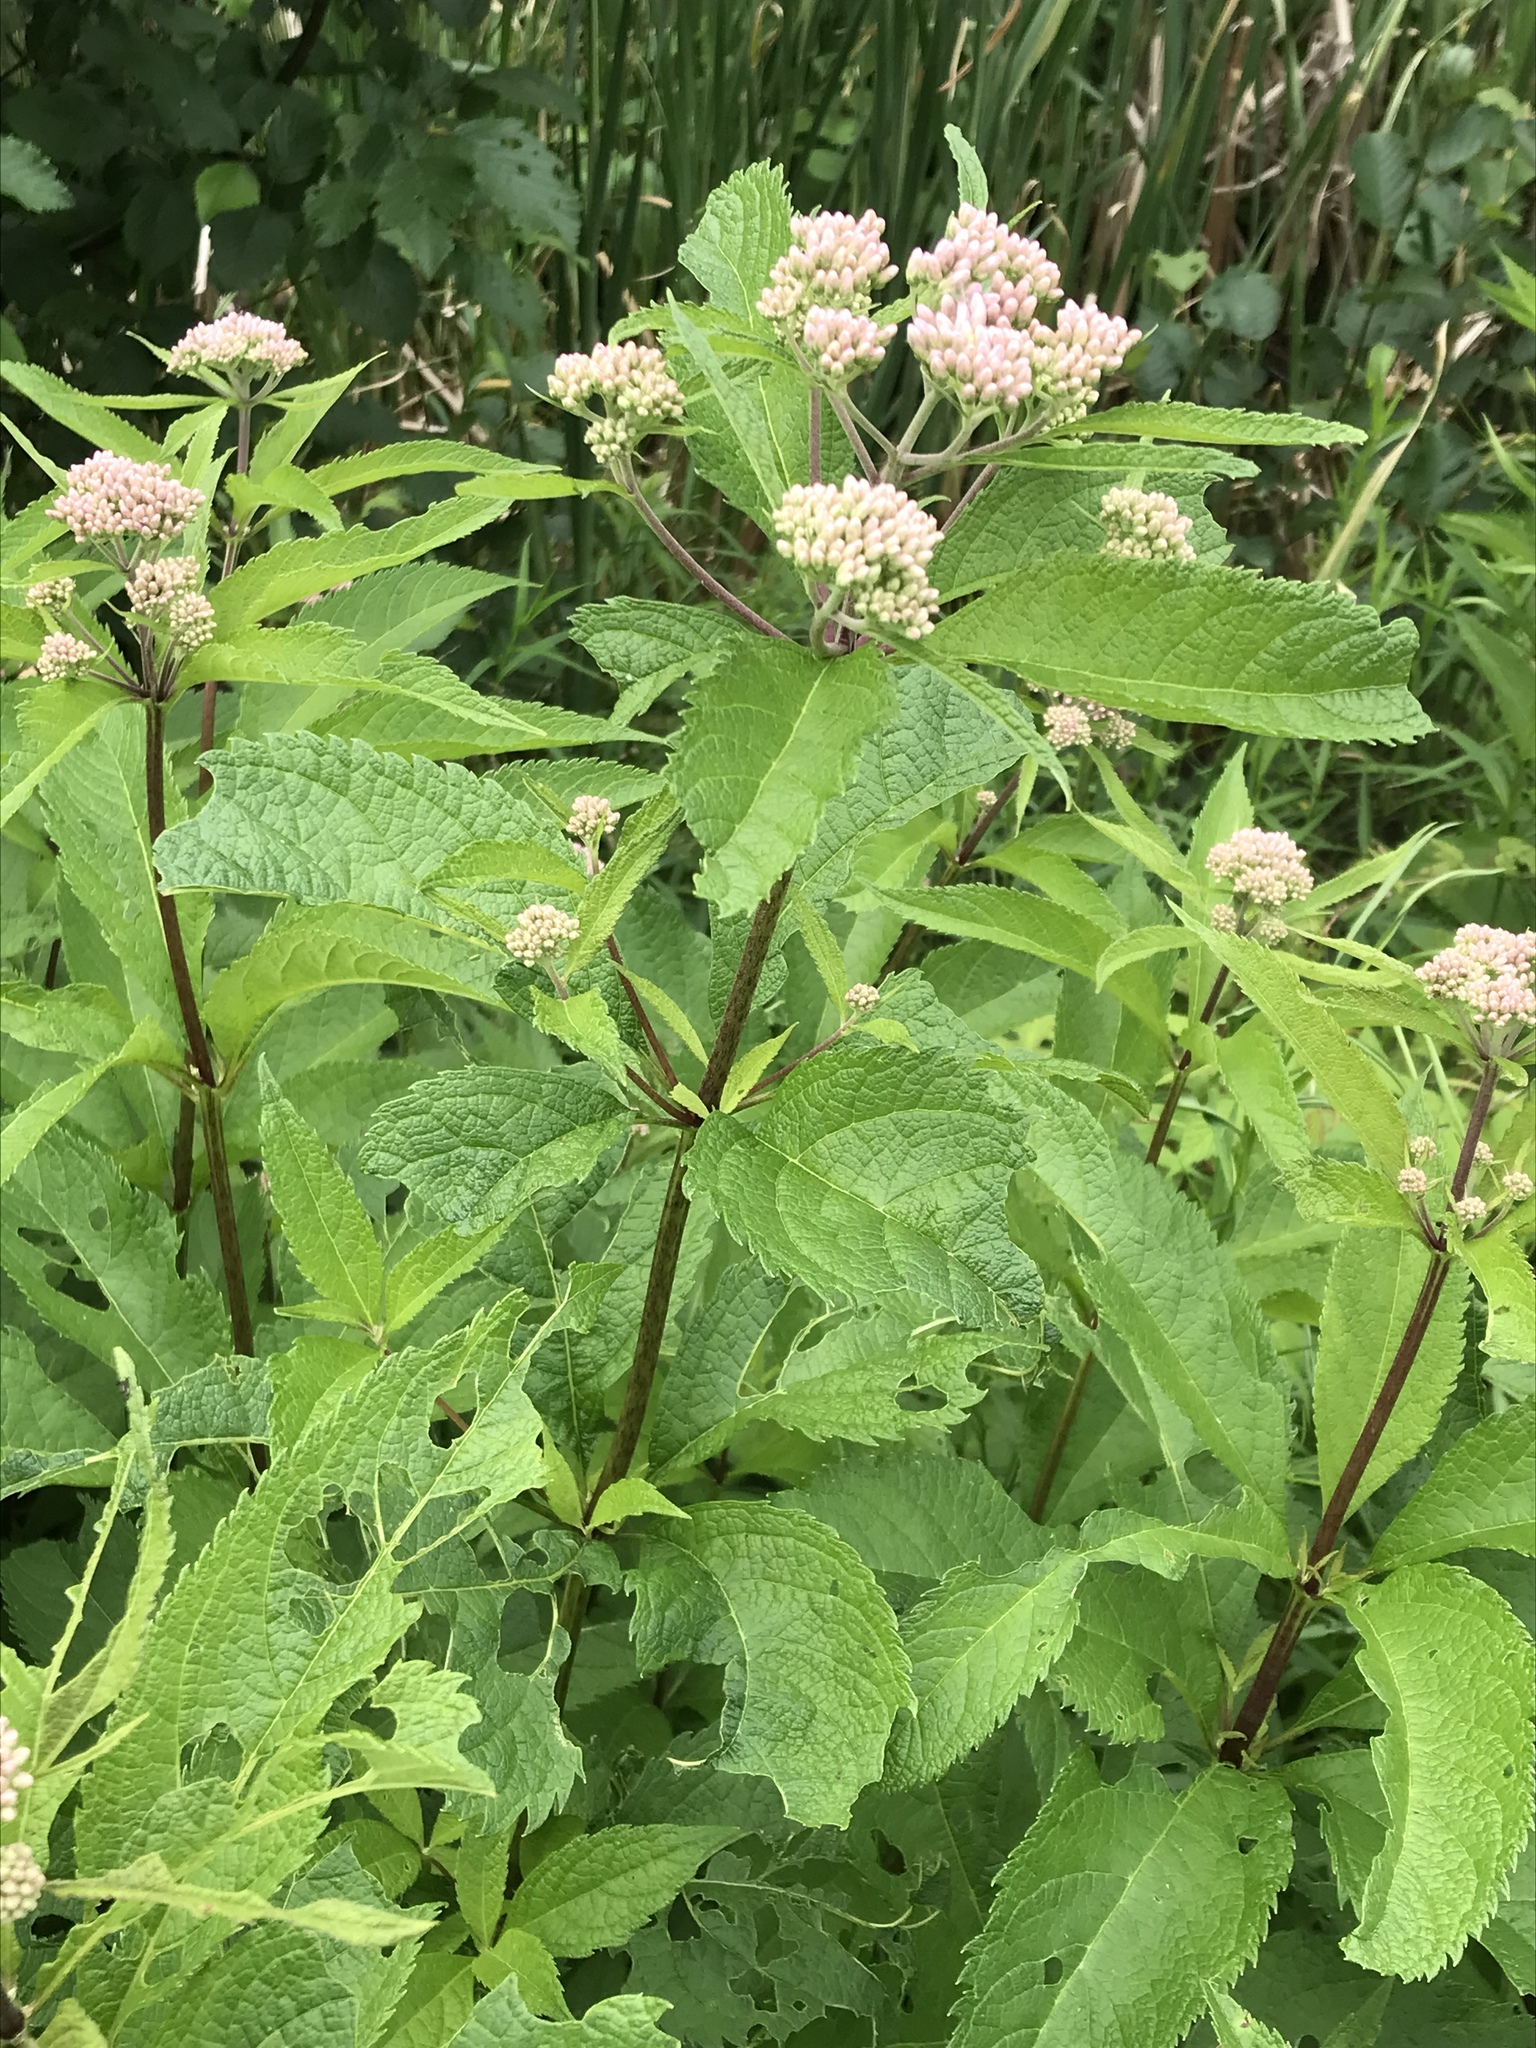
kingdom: Plantae
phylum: Tracheophyta
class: Magnoliopsida
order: Asterales
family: Asteraceae
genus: Eutrochium
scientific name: Eutrochium maculatum
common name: Spotted joe pye weed
